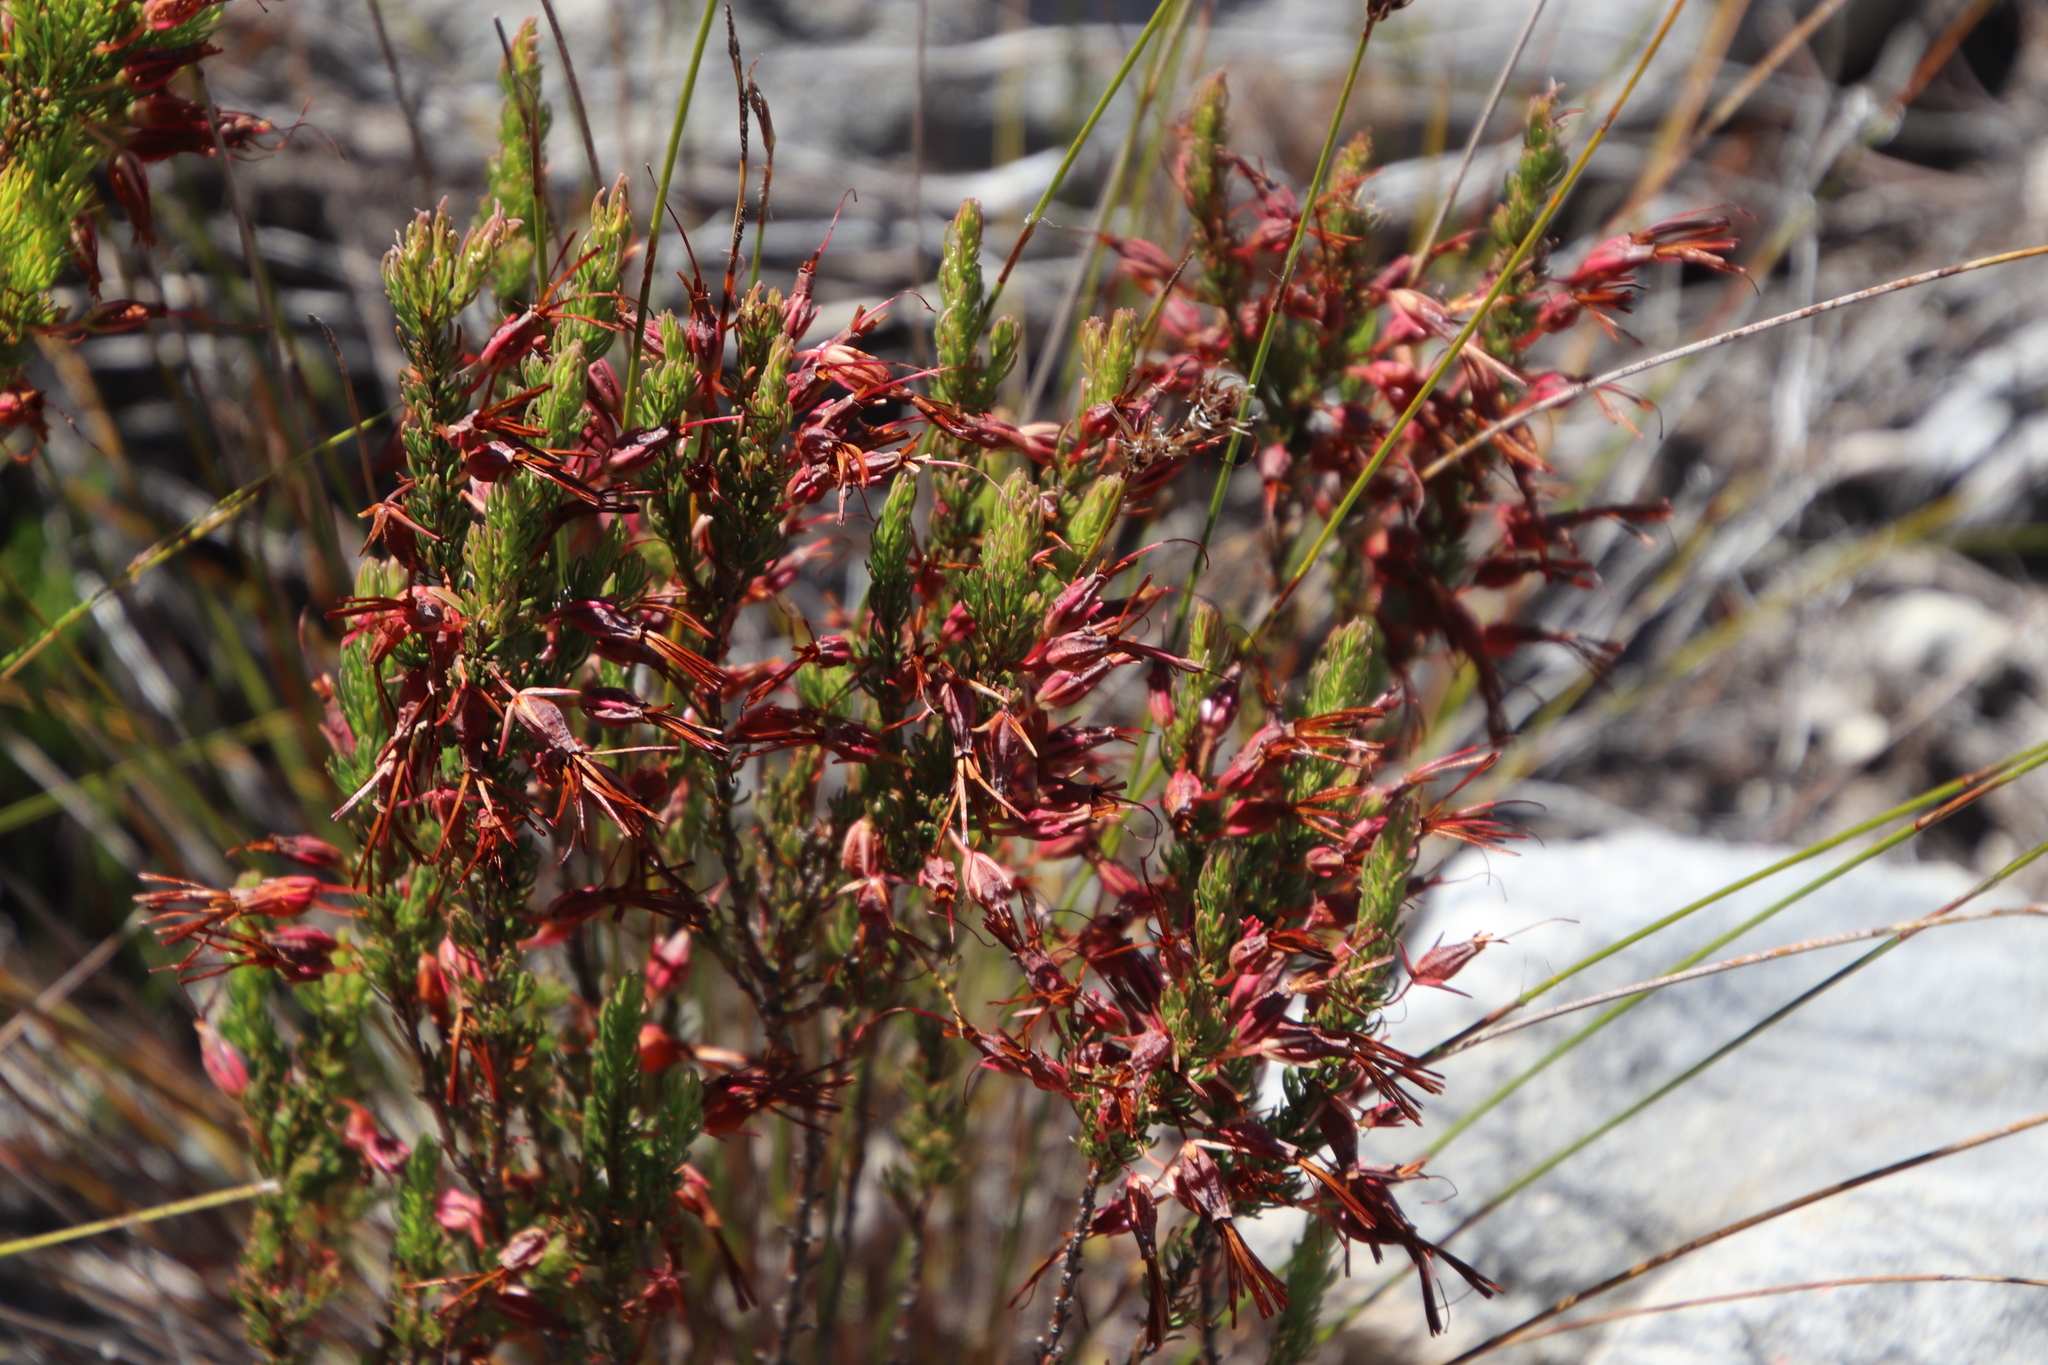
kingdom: Plantae
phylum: Tracheophyta
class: Magnoliopsida
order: Ericales
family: Ericaceae
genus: Erica
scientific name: Erica plukenetii
